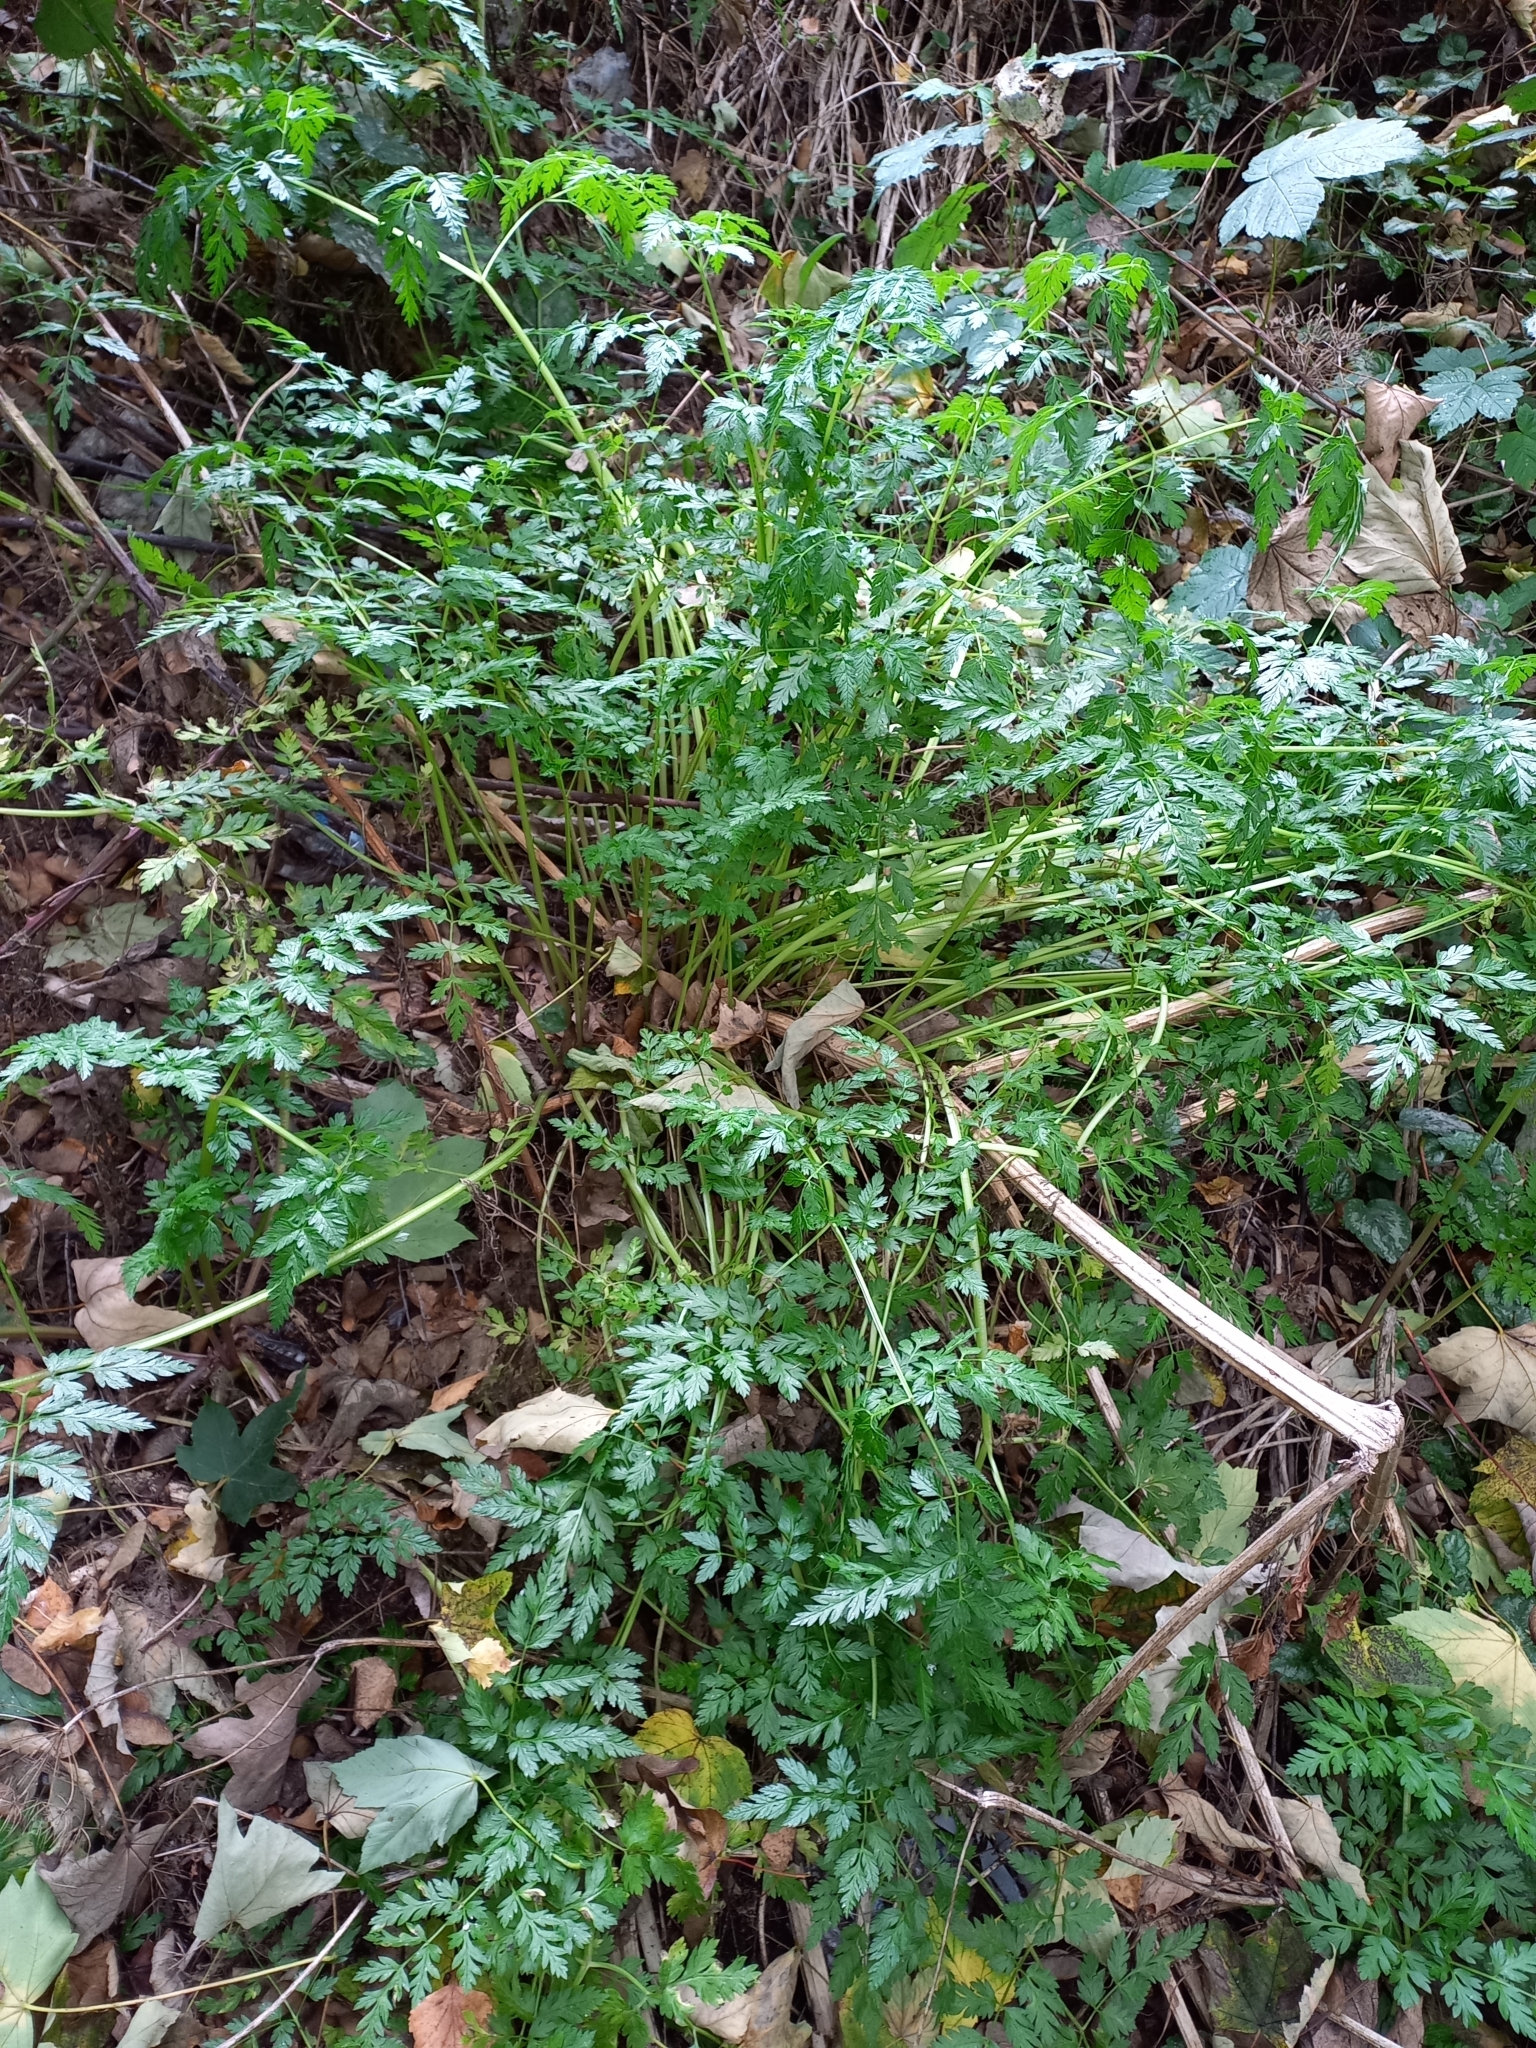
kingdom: Plantae
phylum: Tracheophyta
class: Magnoliopsida
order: Apiales
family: Apiaceae
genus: Anthriscus
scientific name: Anthriscus sylvestris
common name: Cow parsley
